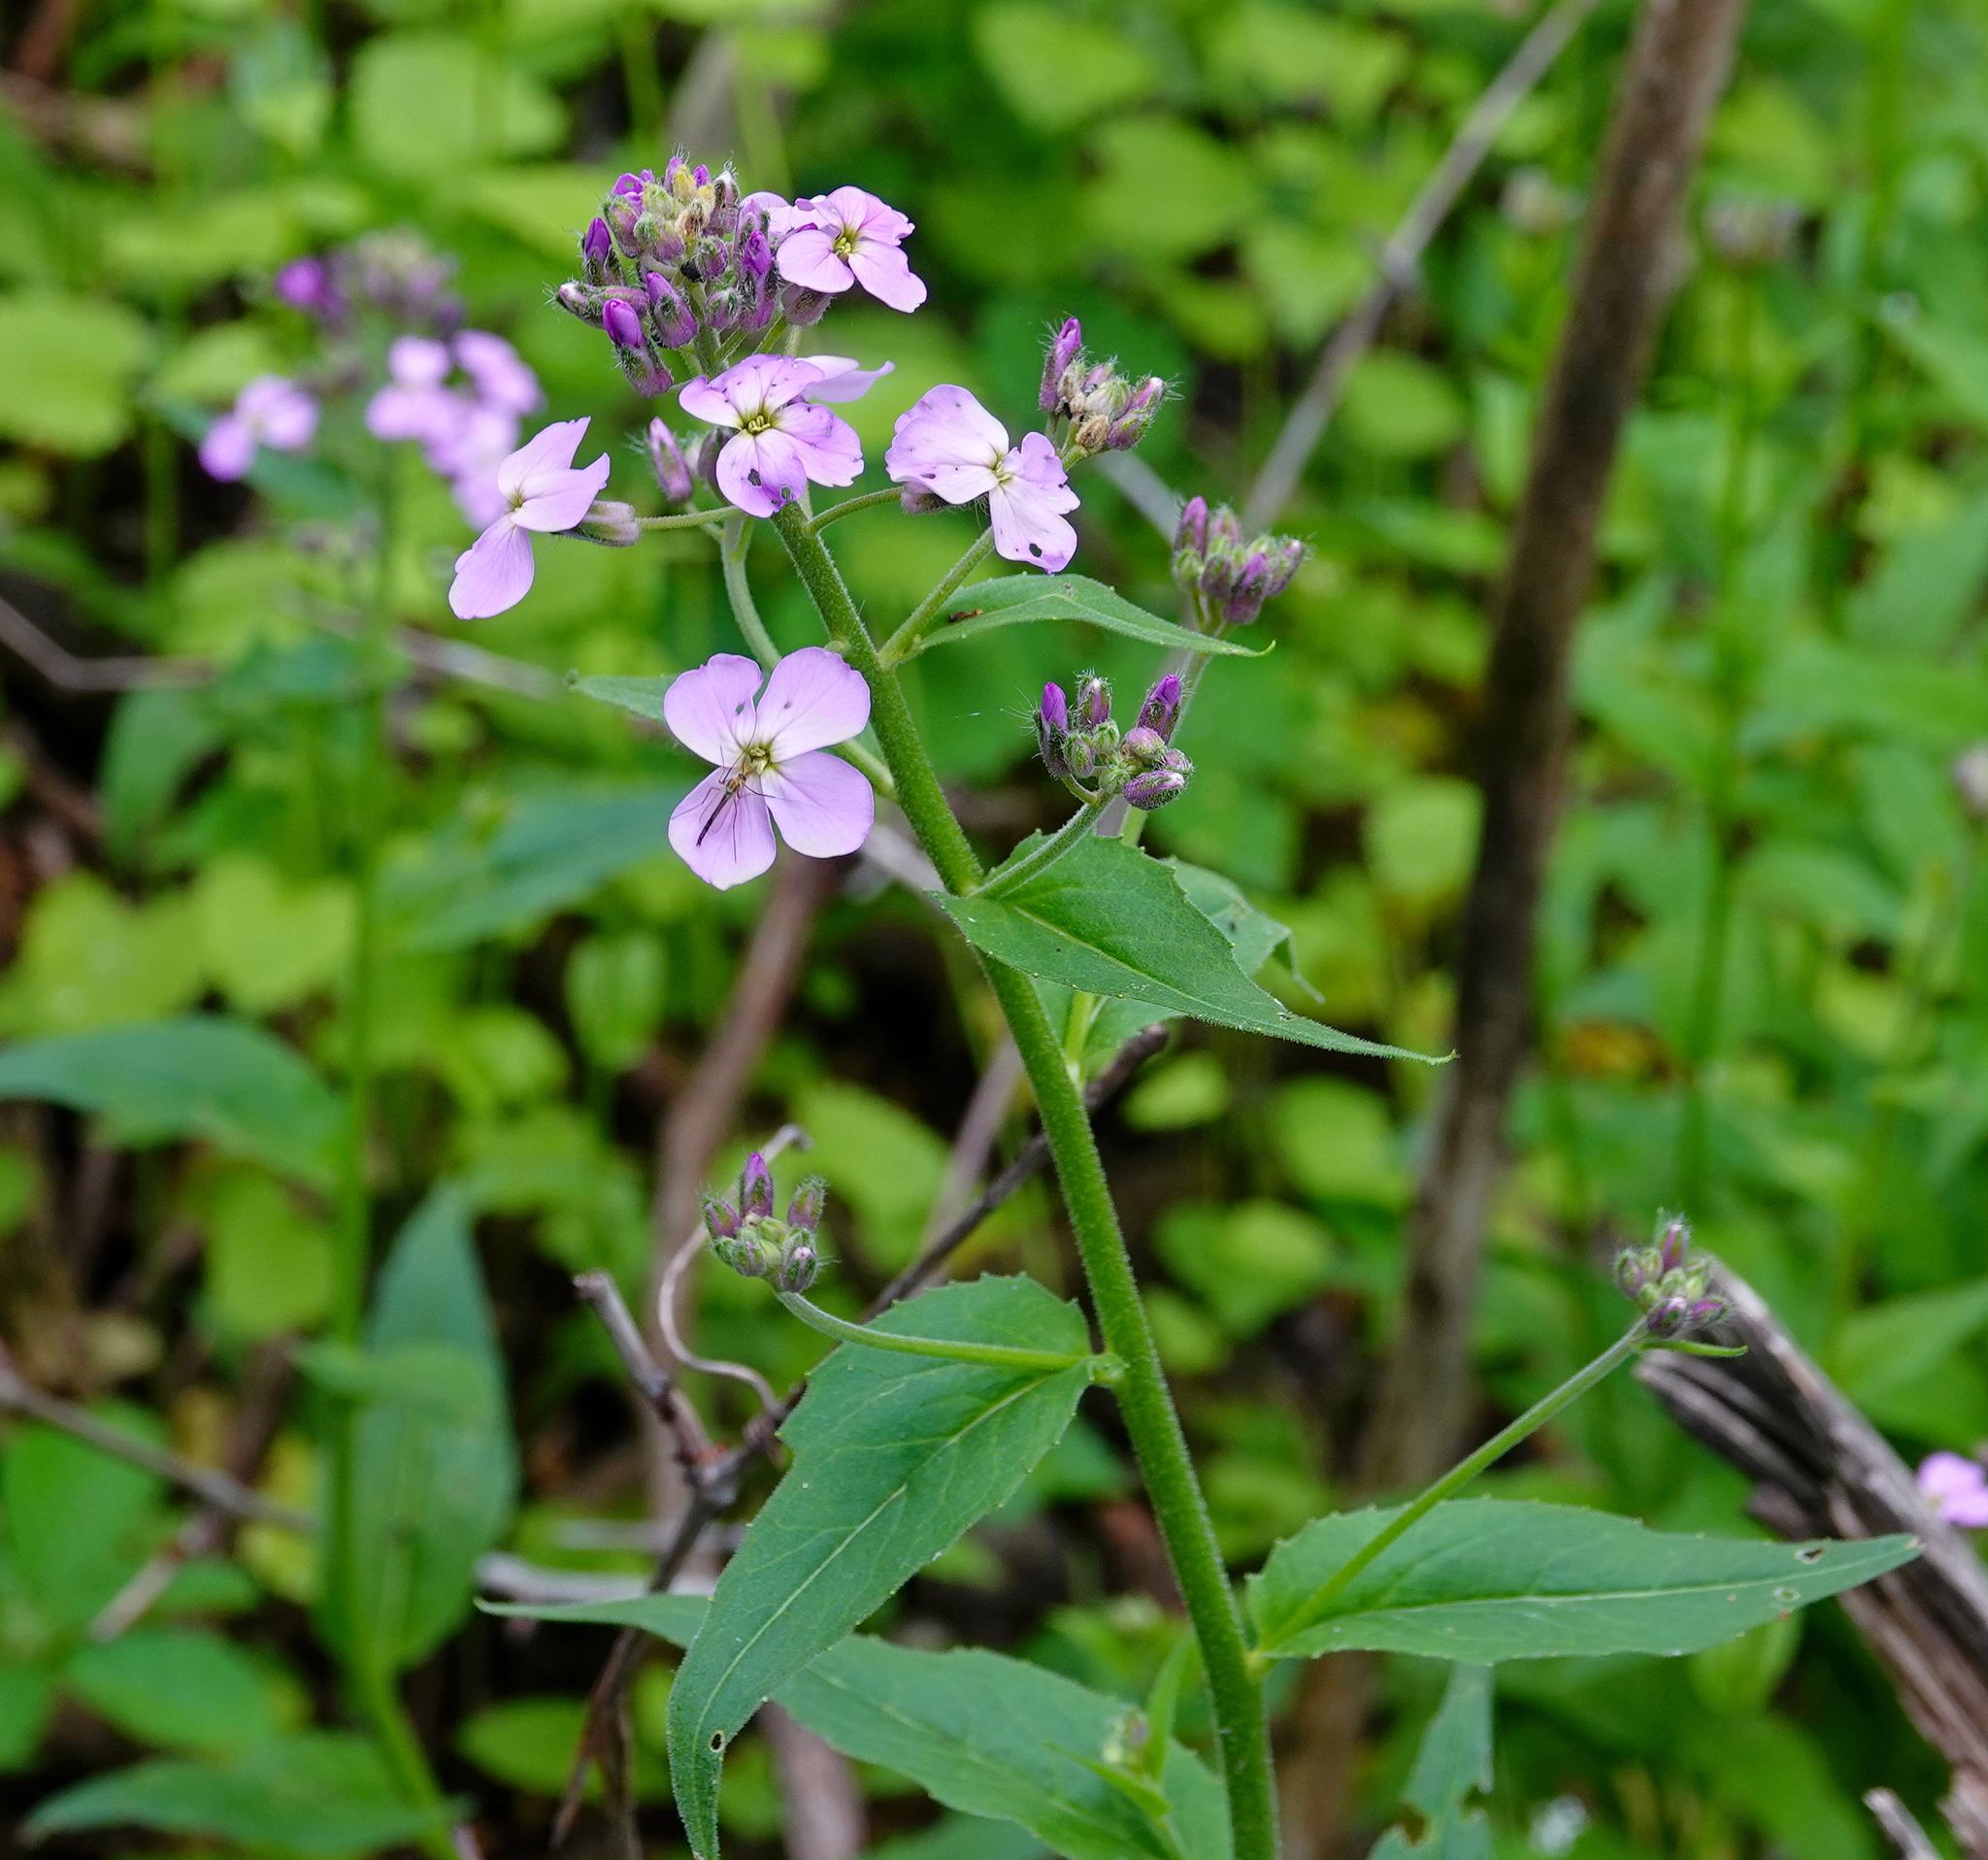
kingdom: Plantae
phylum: Tracheophyta
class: Magnoliopsida
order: Brassicales
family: Brassicaceae
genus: Hesperis
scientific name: Hesperis matronalis
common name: Dame's-violet
